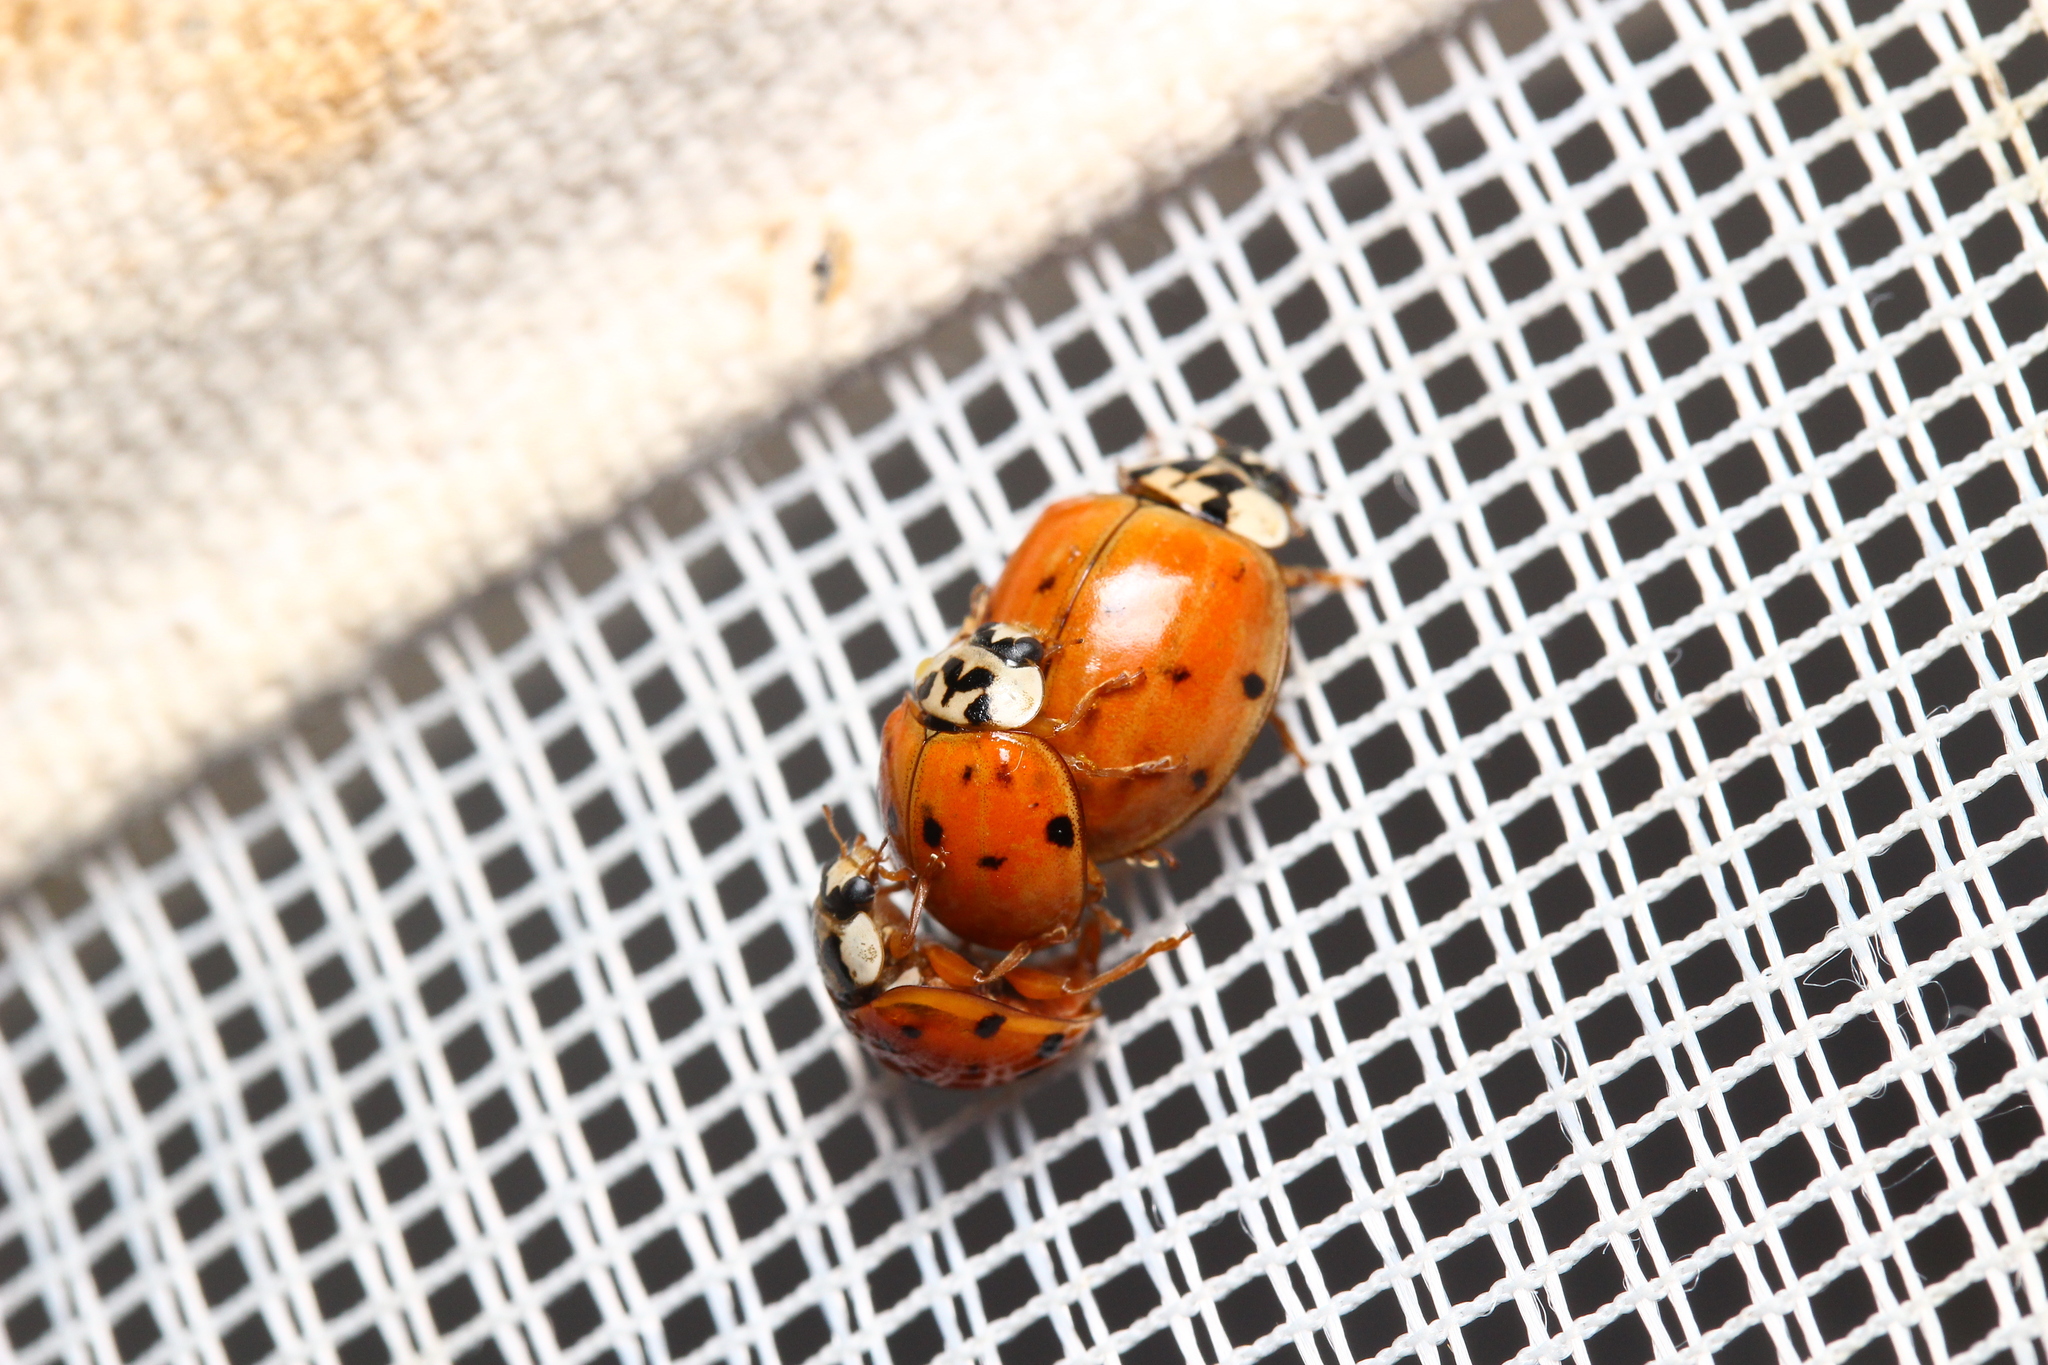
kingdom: Animalia
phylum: Arthropoda
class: Insecta
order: Coleoptera
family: Coccinellidae
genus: Harmonia
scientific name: Harmonia axyridis
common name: Harlequin ladybird
